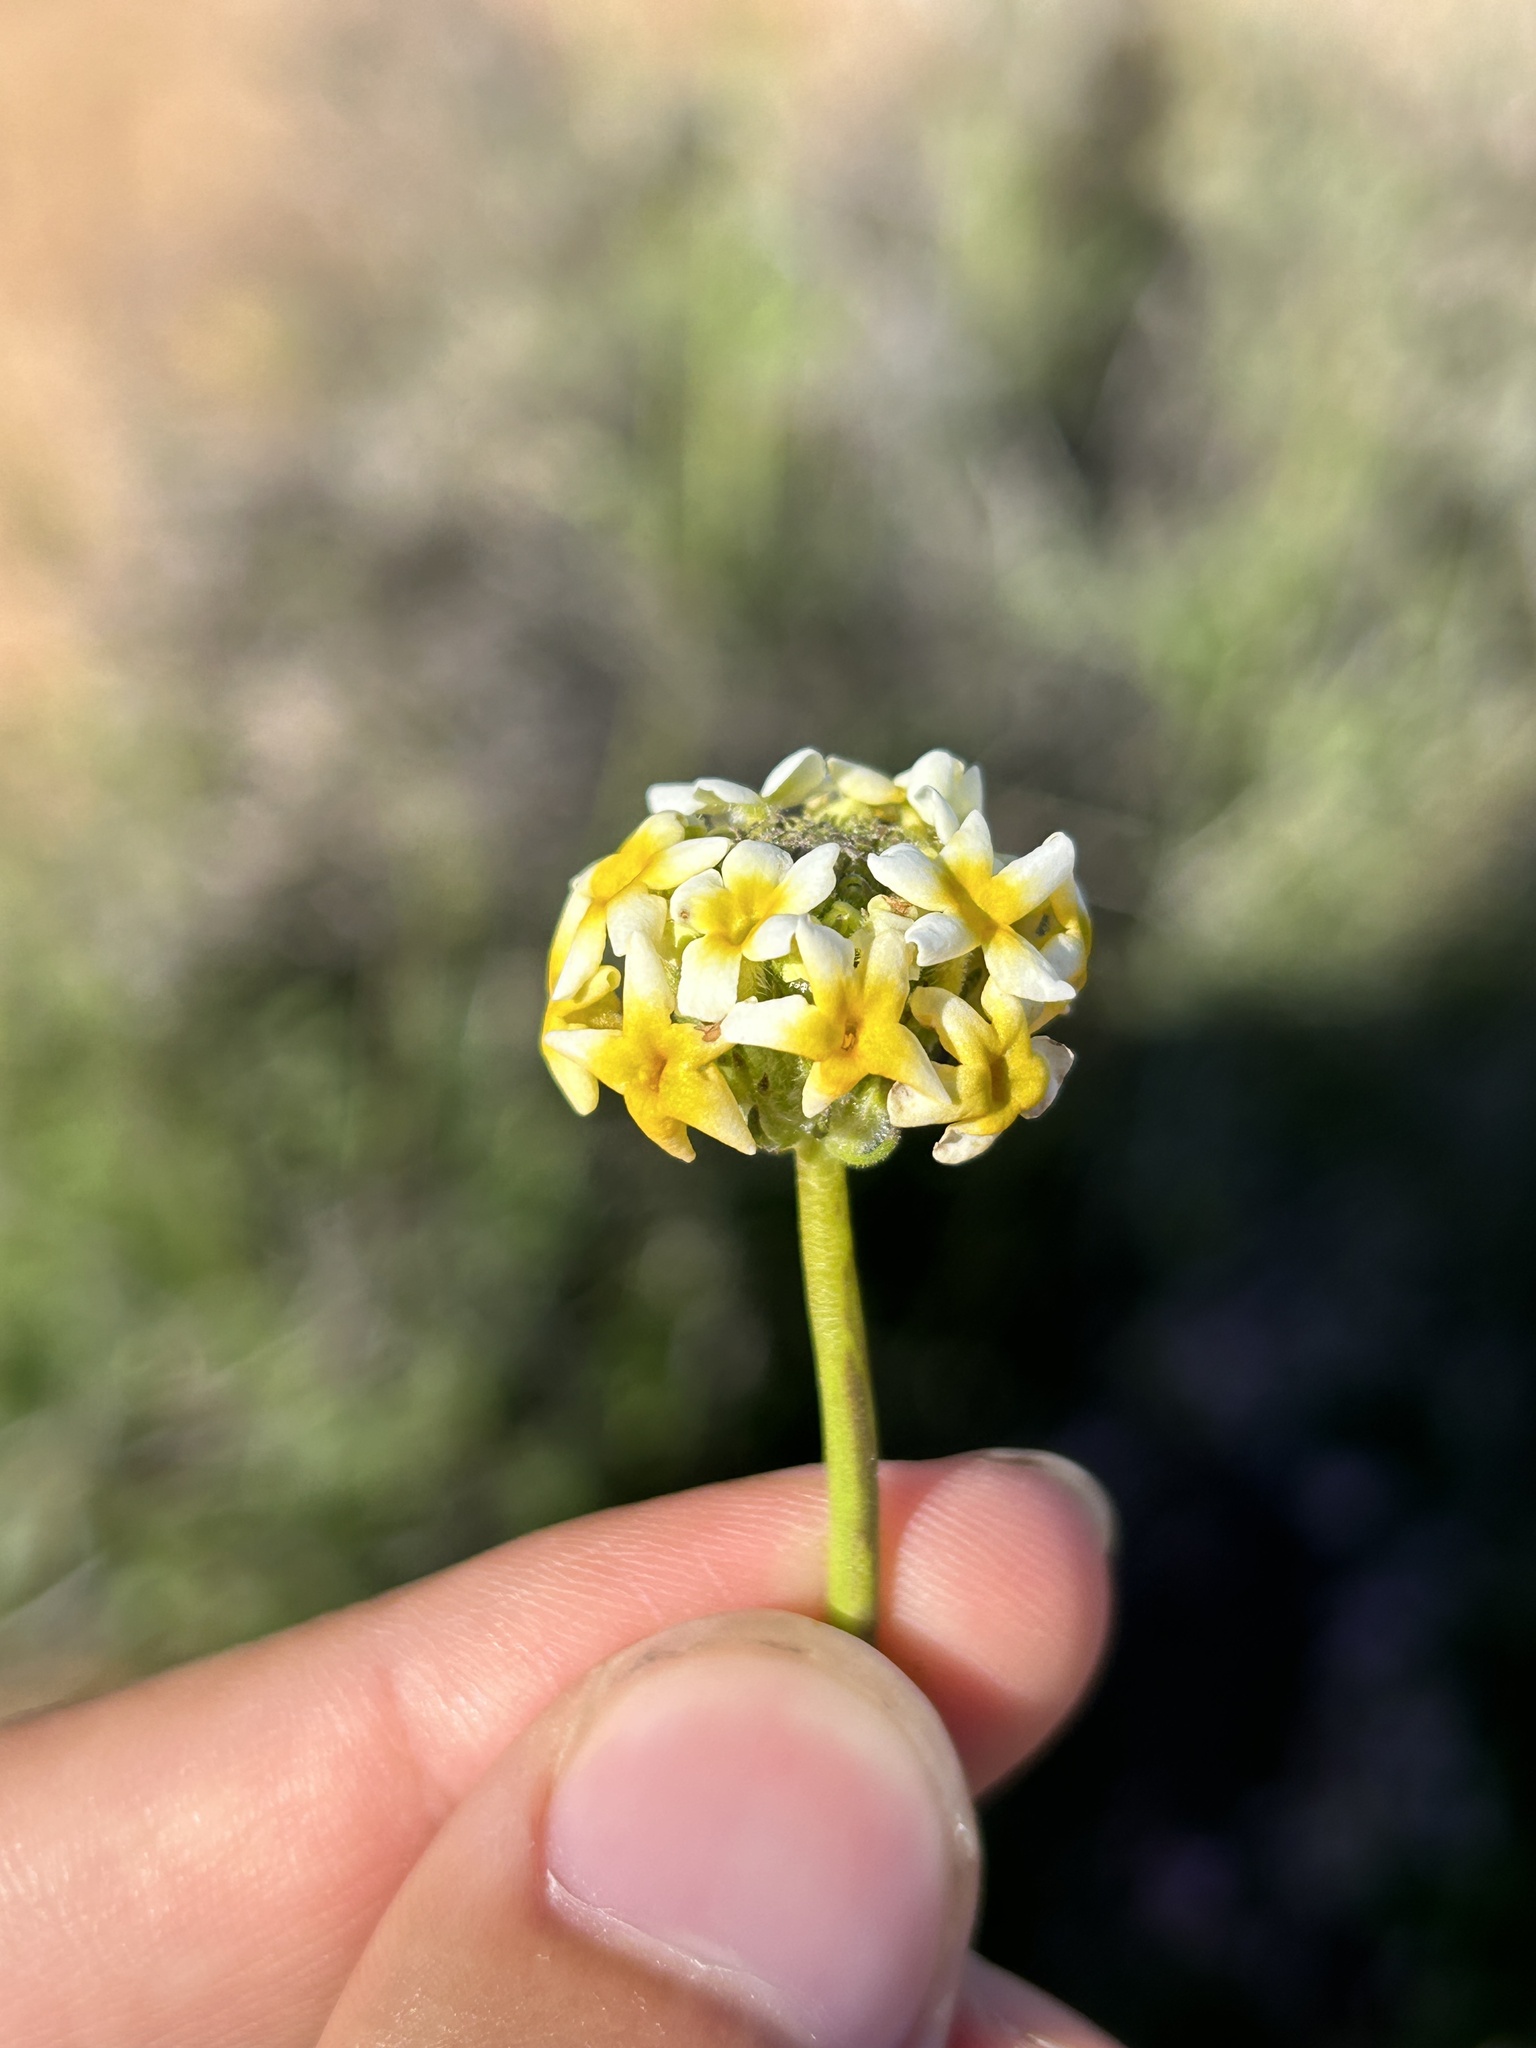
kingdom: Plantae
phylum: Tracheophyta
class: Magnoliopsida
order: Lamiales
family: Scrophulariaceae
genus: Manulea
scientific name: Manulea altissima
